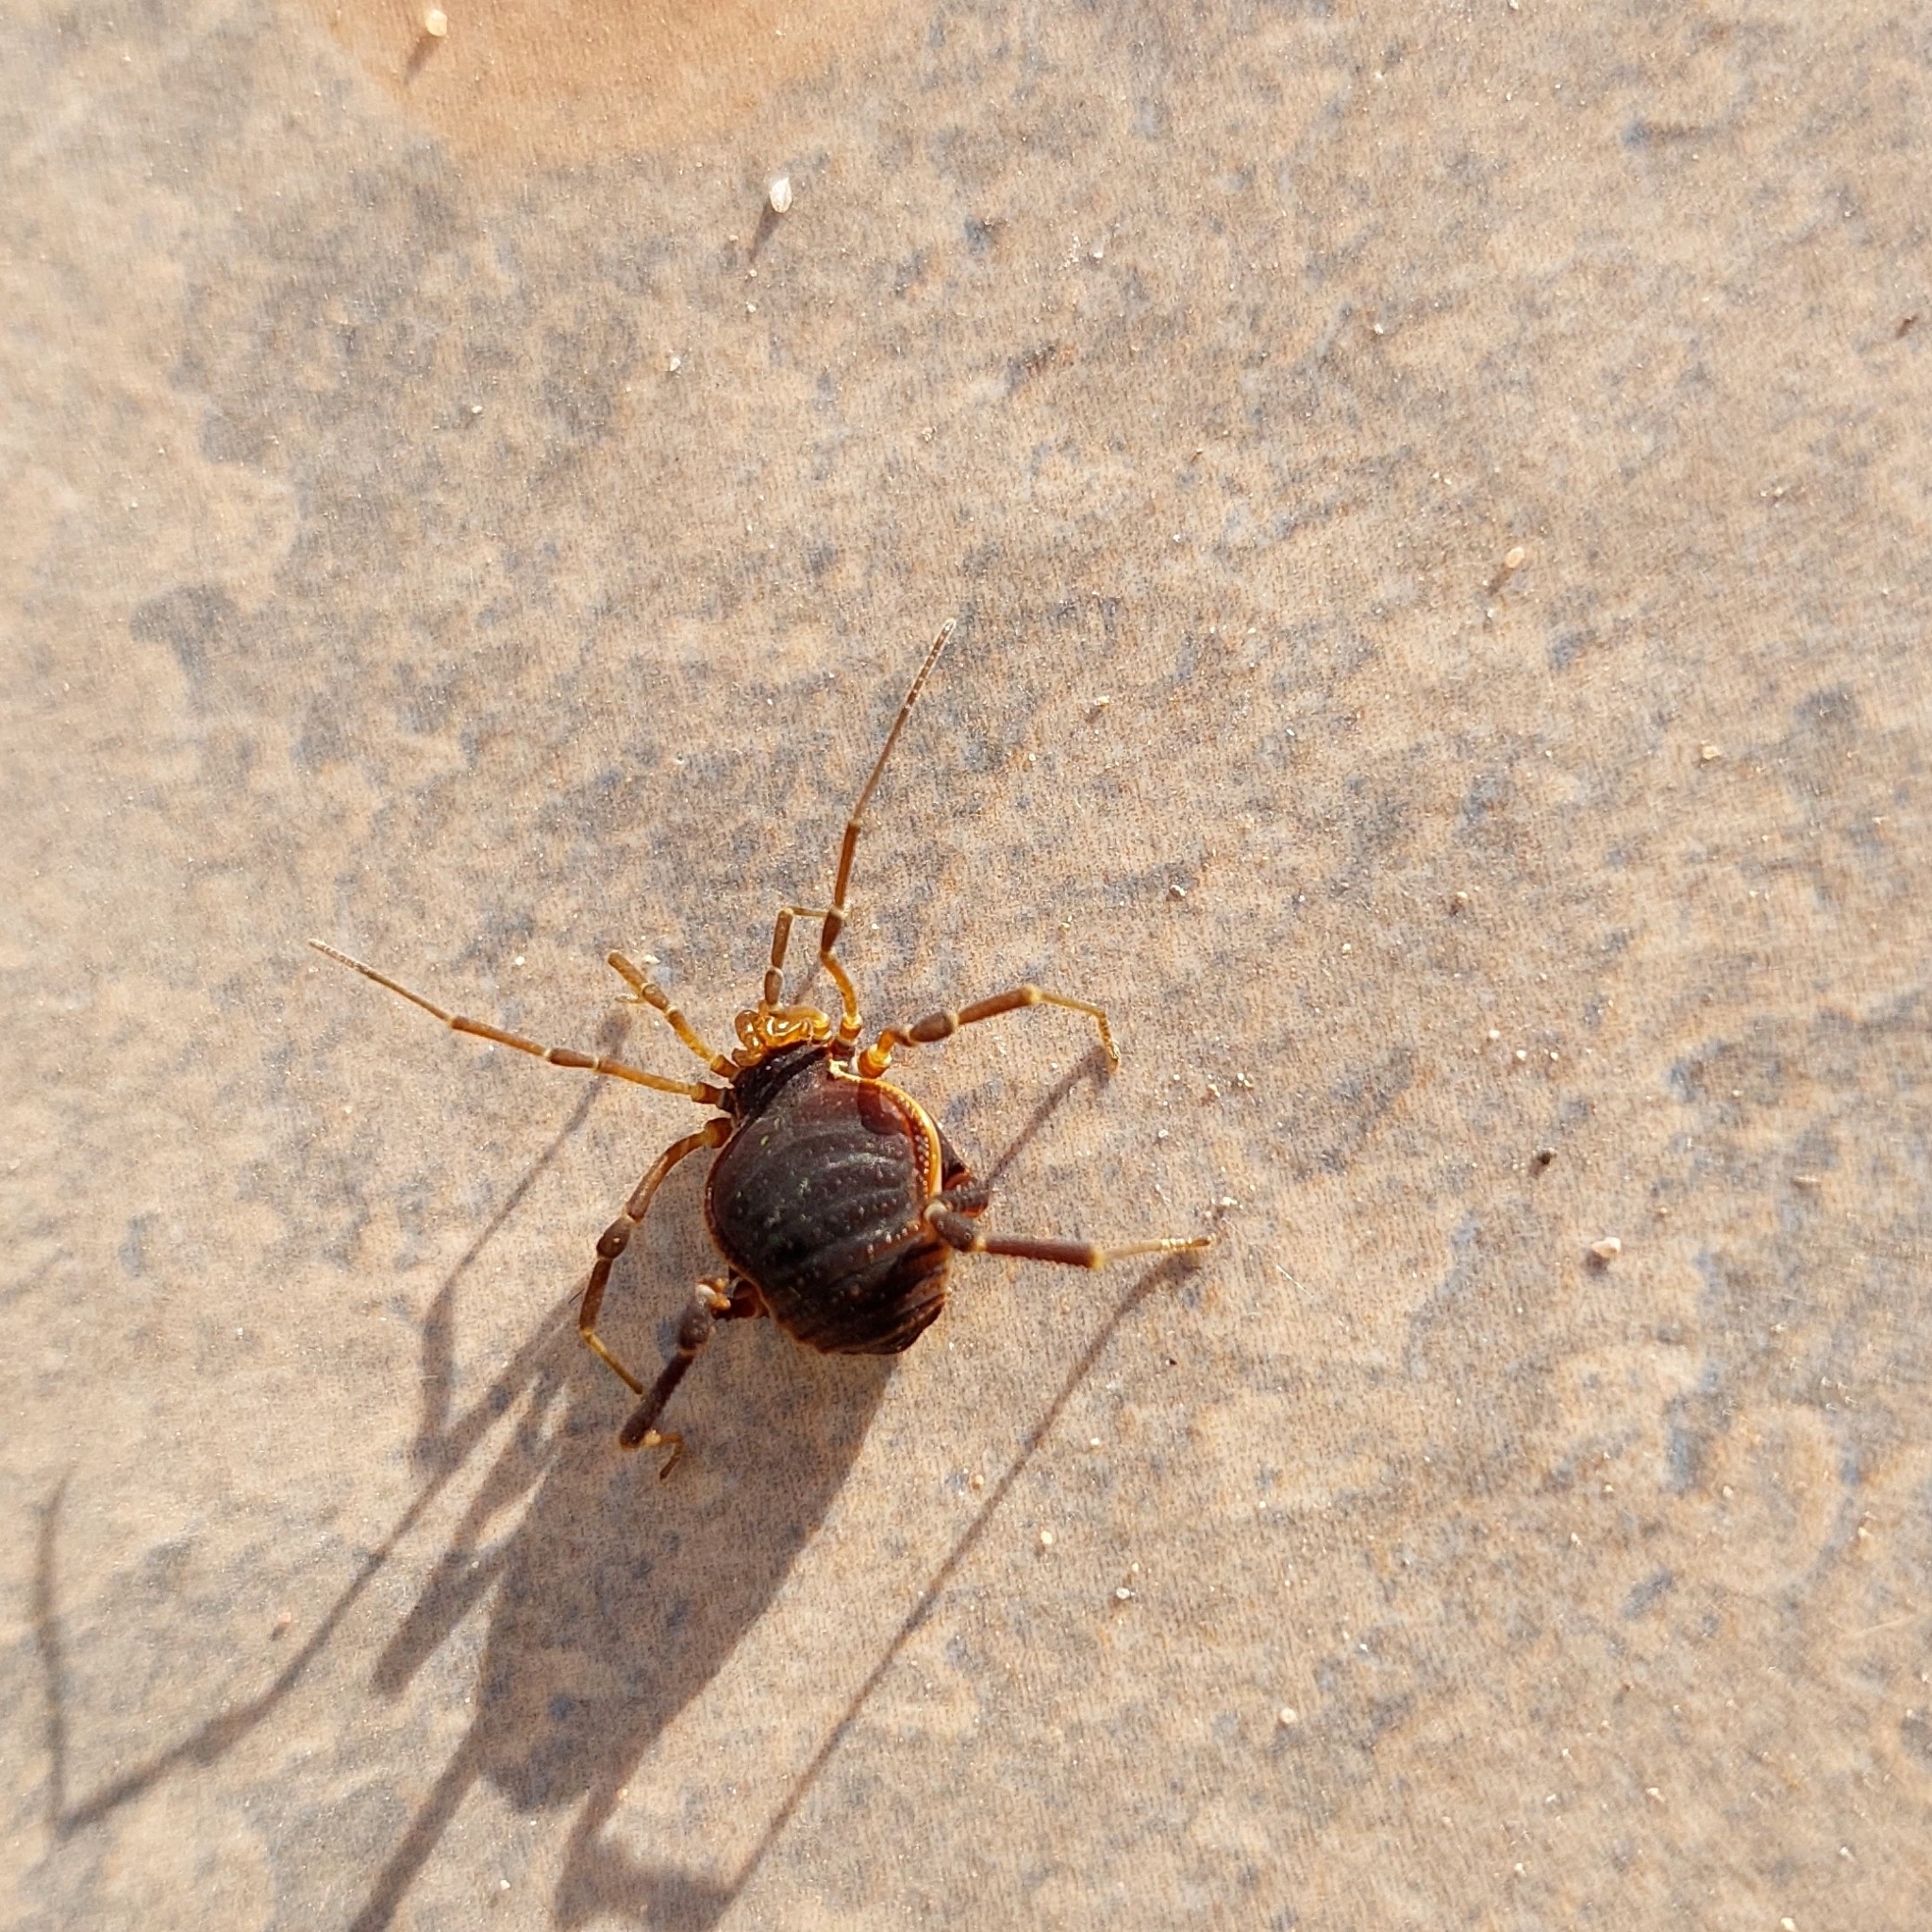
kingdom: Animalia
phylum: Arthropoda
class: Arachnida
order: Opiliones
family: Gonyleptidae
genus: Acanthopachylus
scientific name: Acanthopachylus robustus
